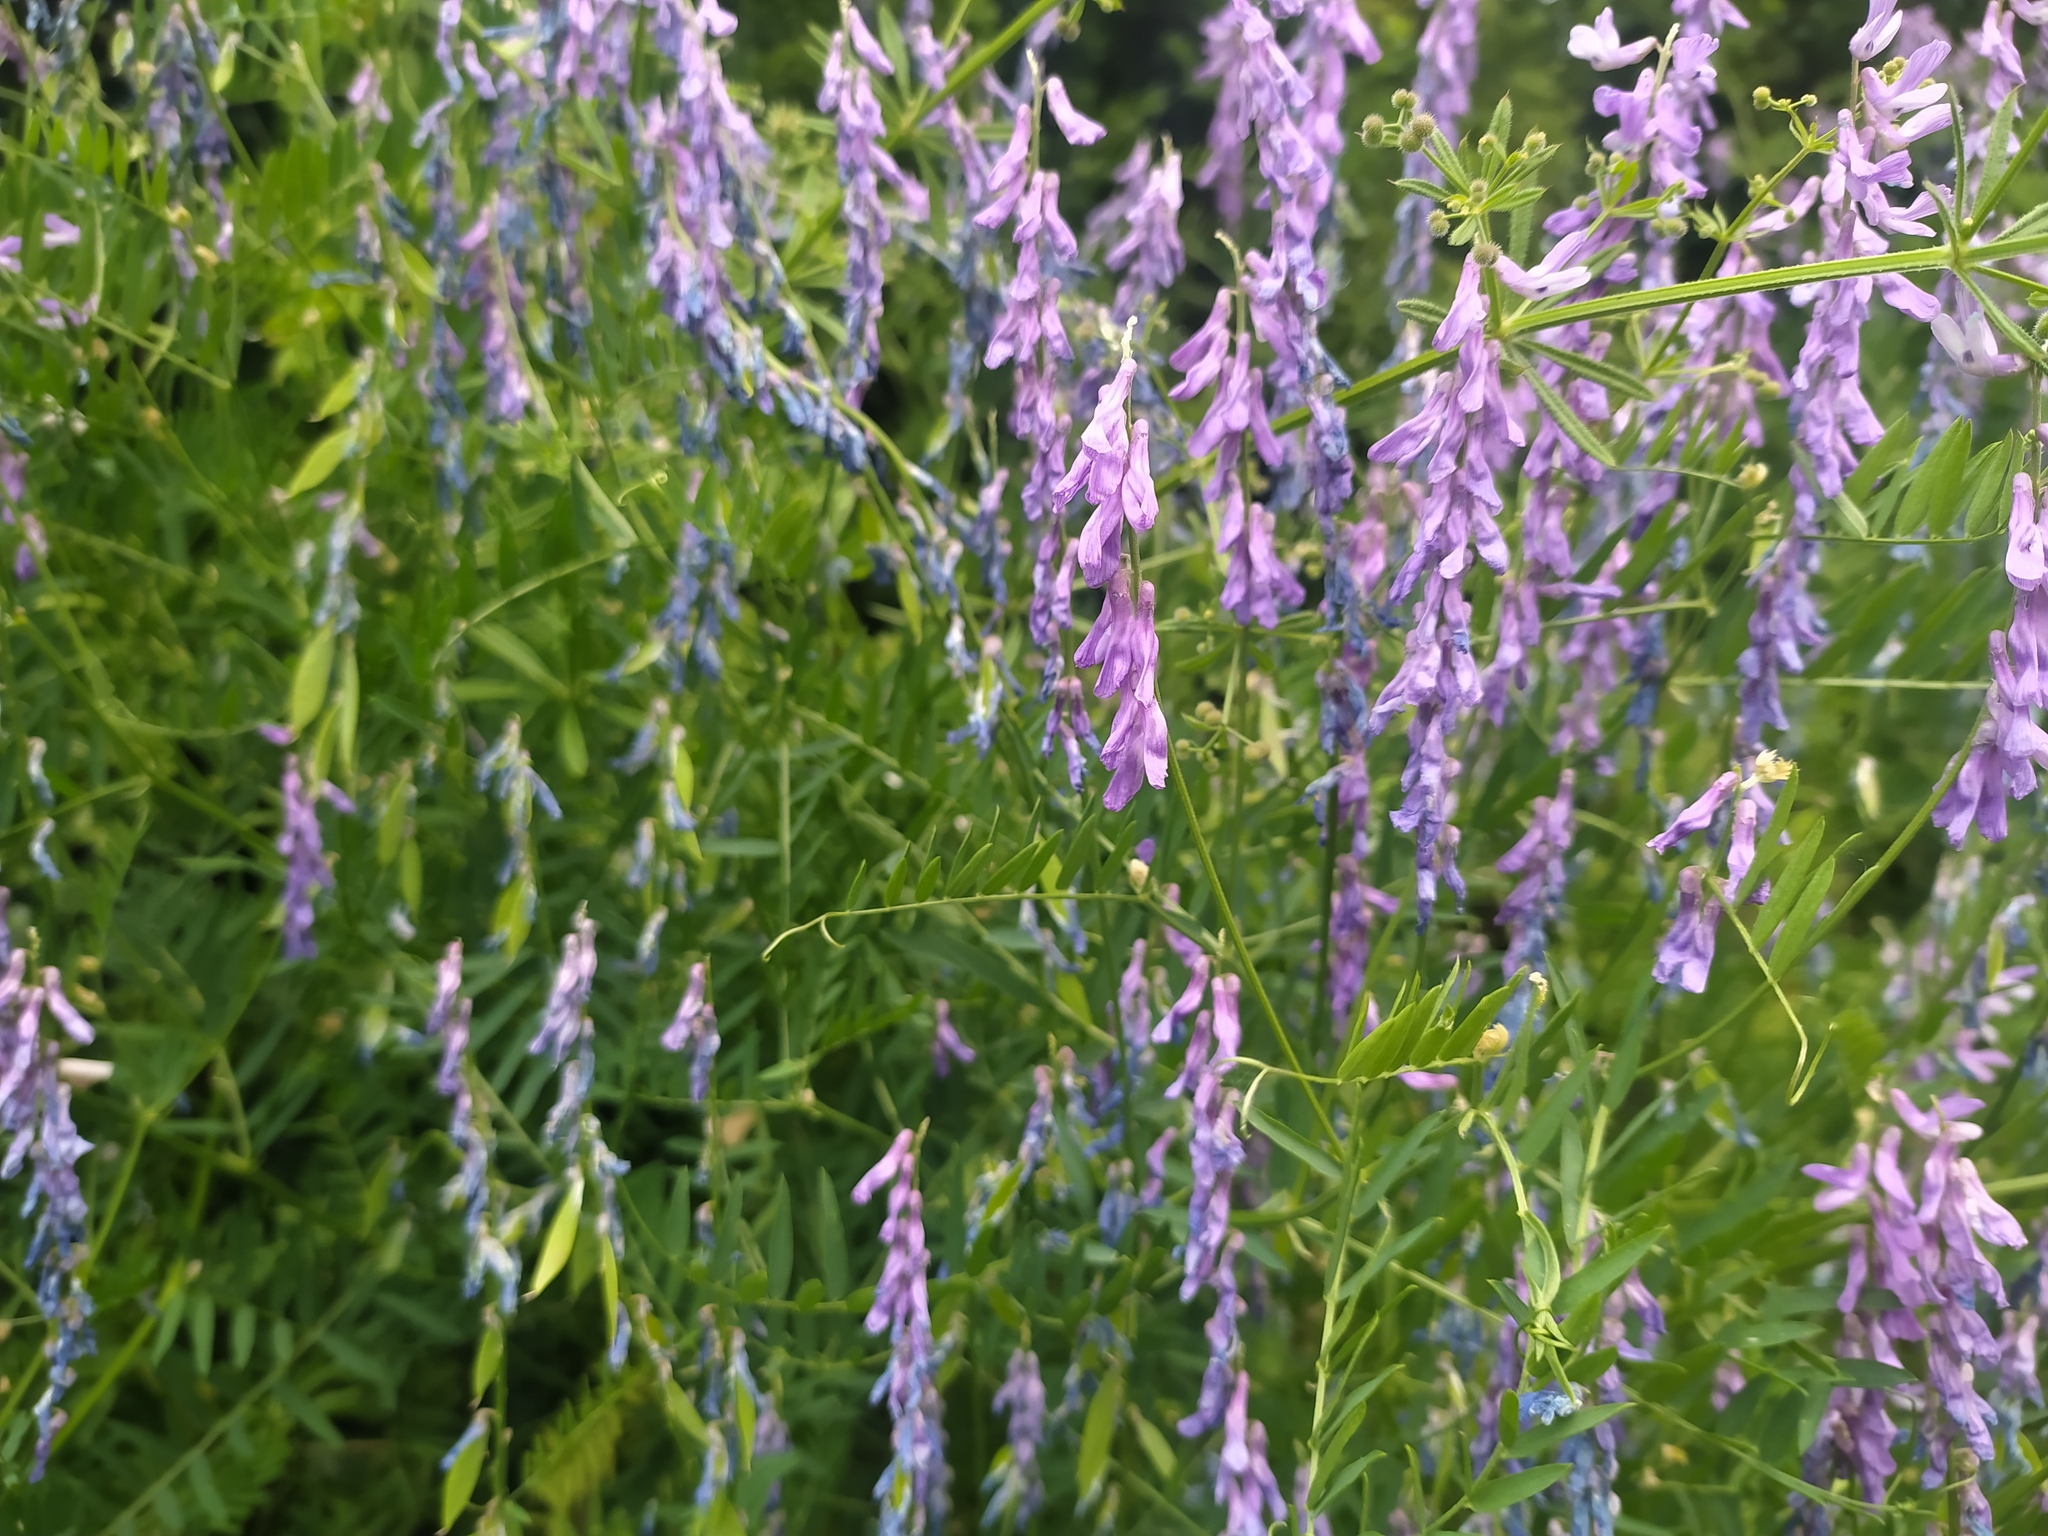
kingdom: Plantae
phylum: Tracheophyta
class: Magnoliopsida
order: Fabales
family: Fabaceae
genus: Vicia
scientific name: Vicia tenuifolia
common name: Fine-leaved vetch
